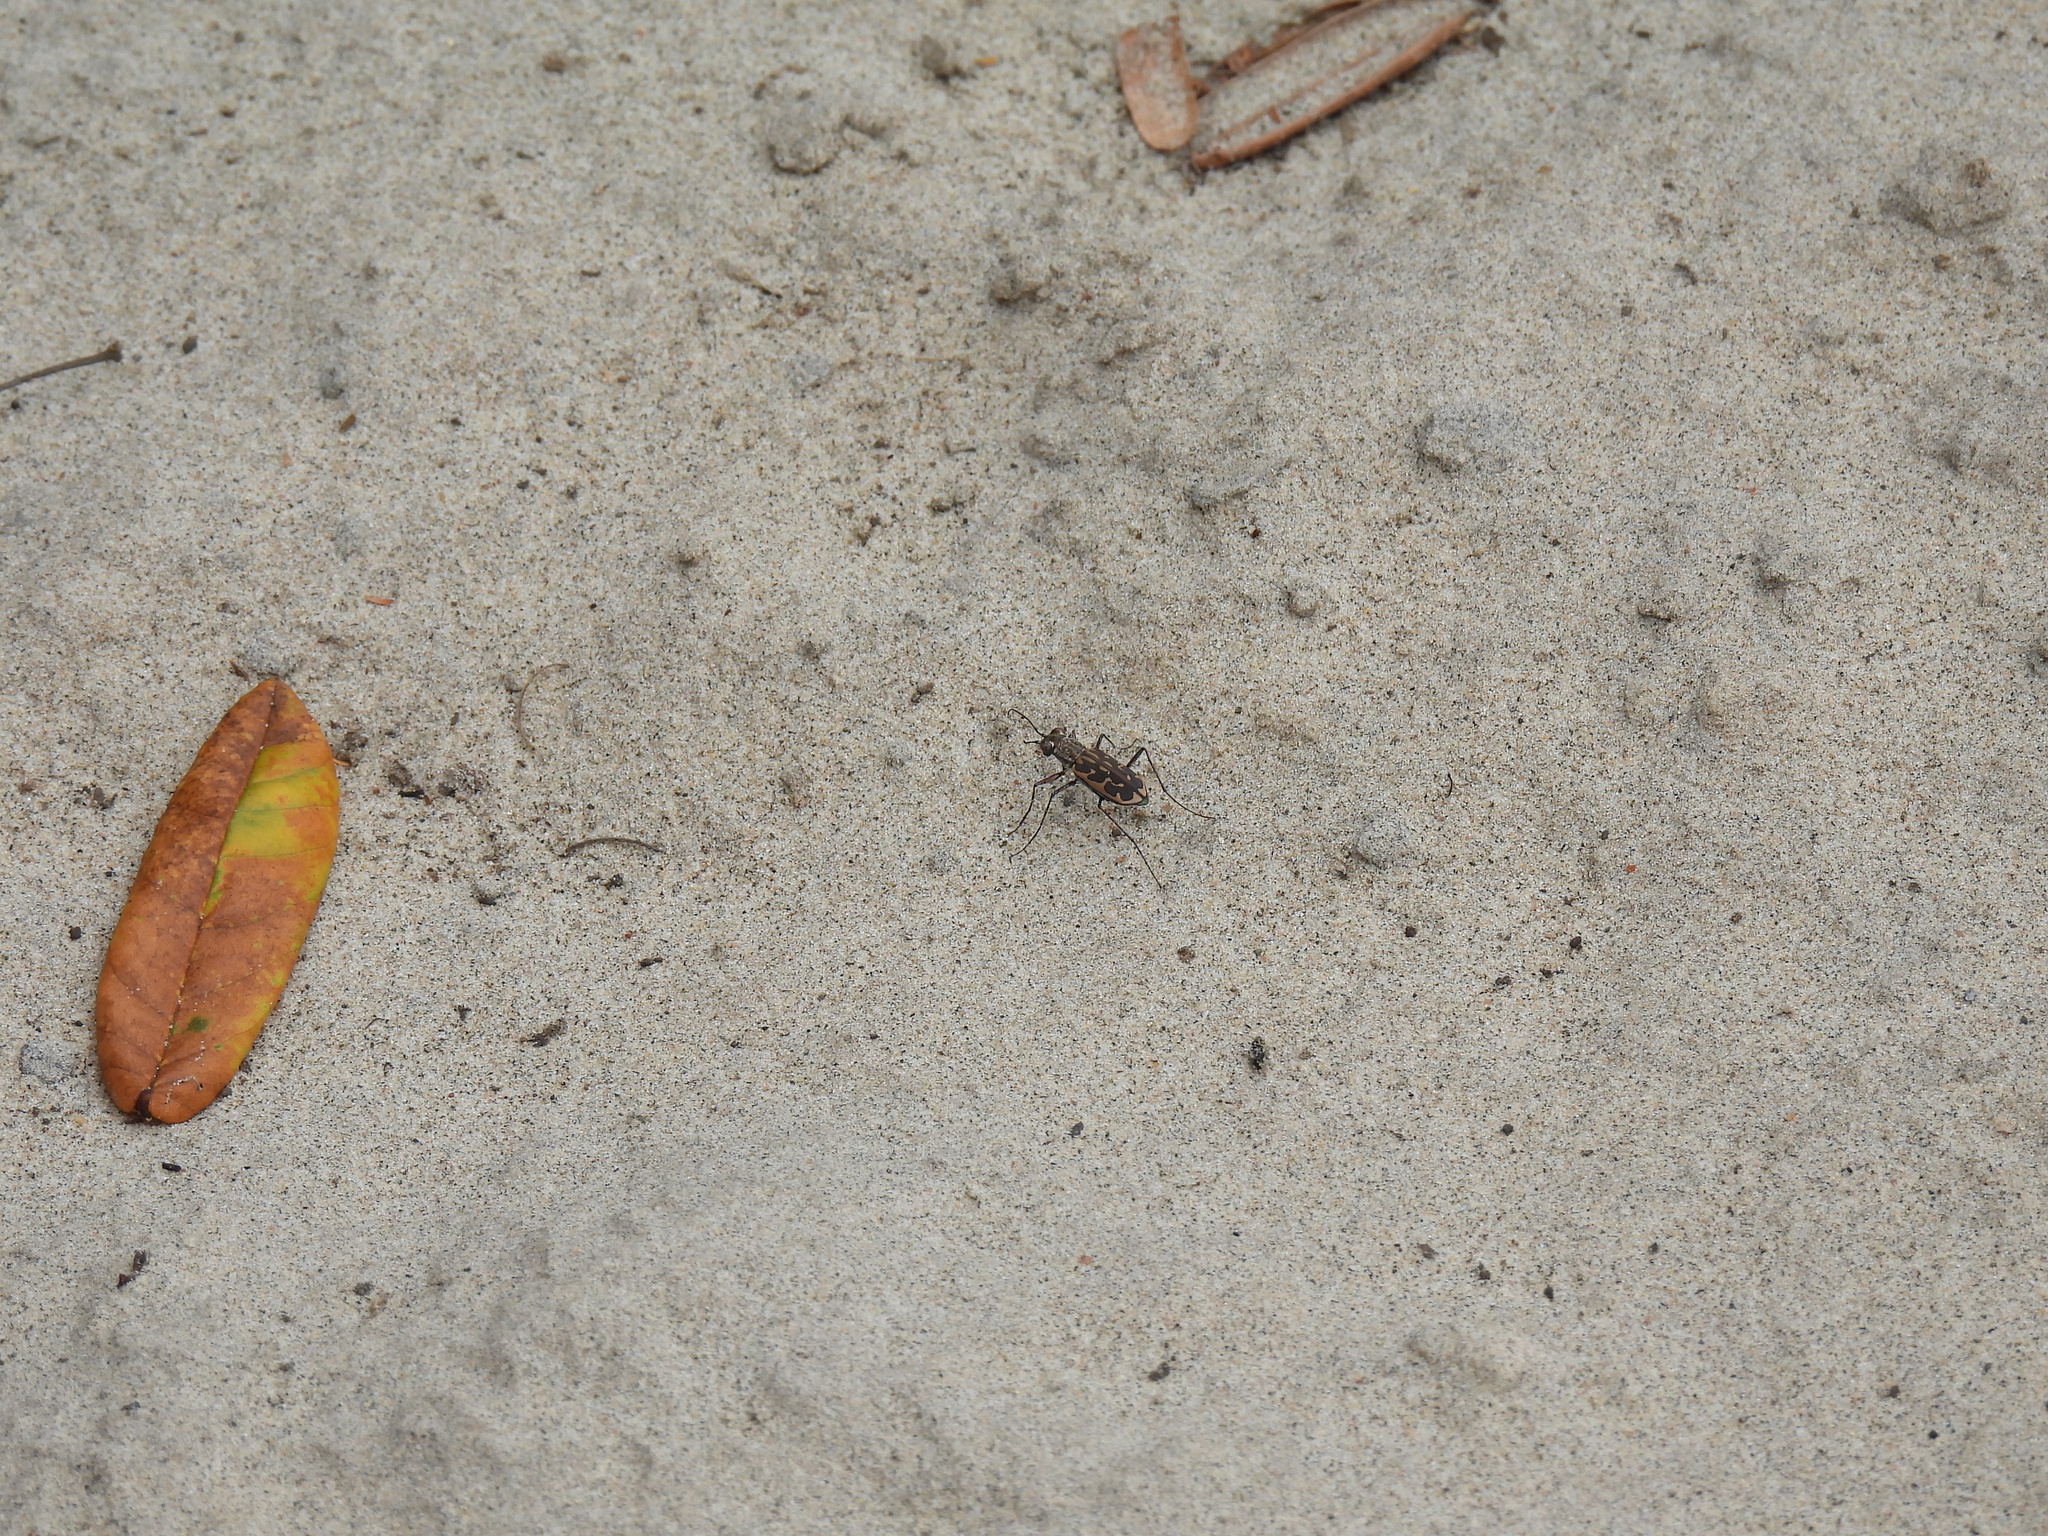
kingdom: Animalia
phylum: Arthropoda
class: Insecta
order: Coleoptera
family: Carabidae
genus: Lophyra
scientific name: Lophyra neglecta
